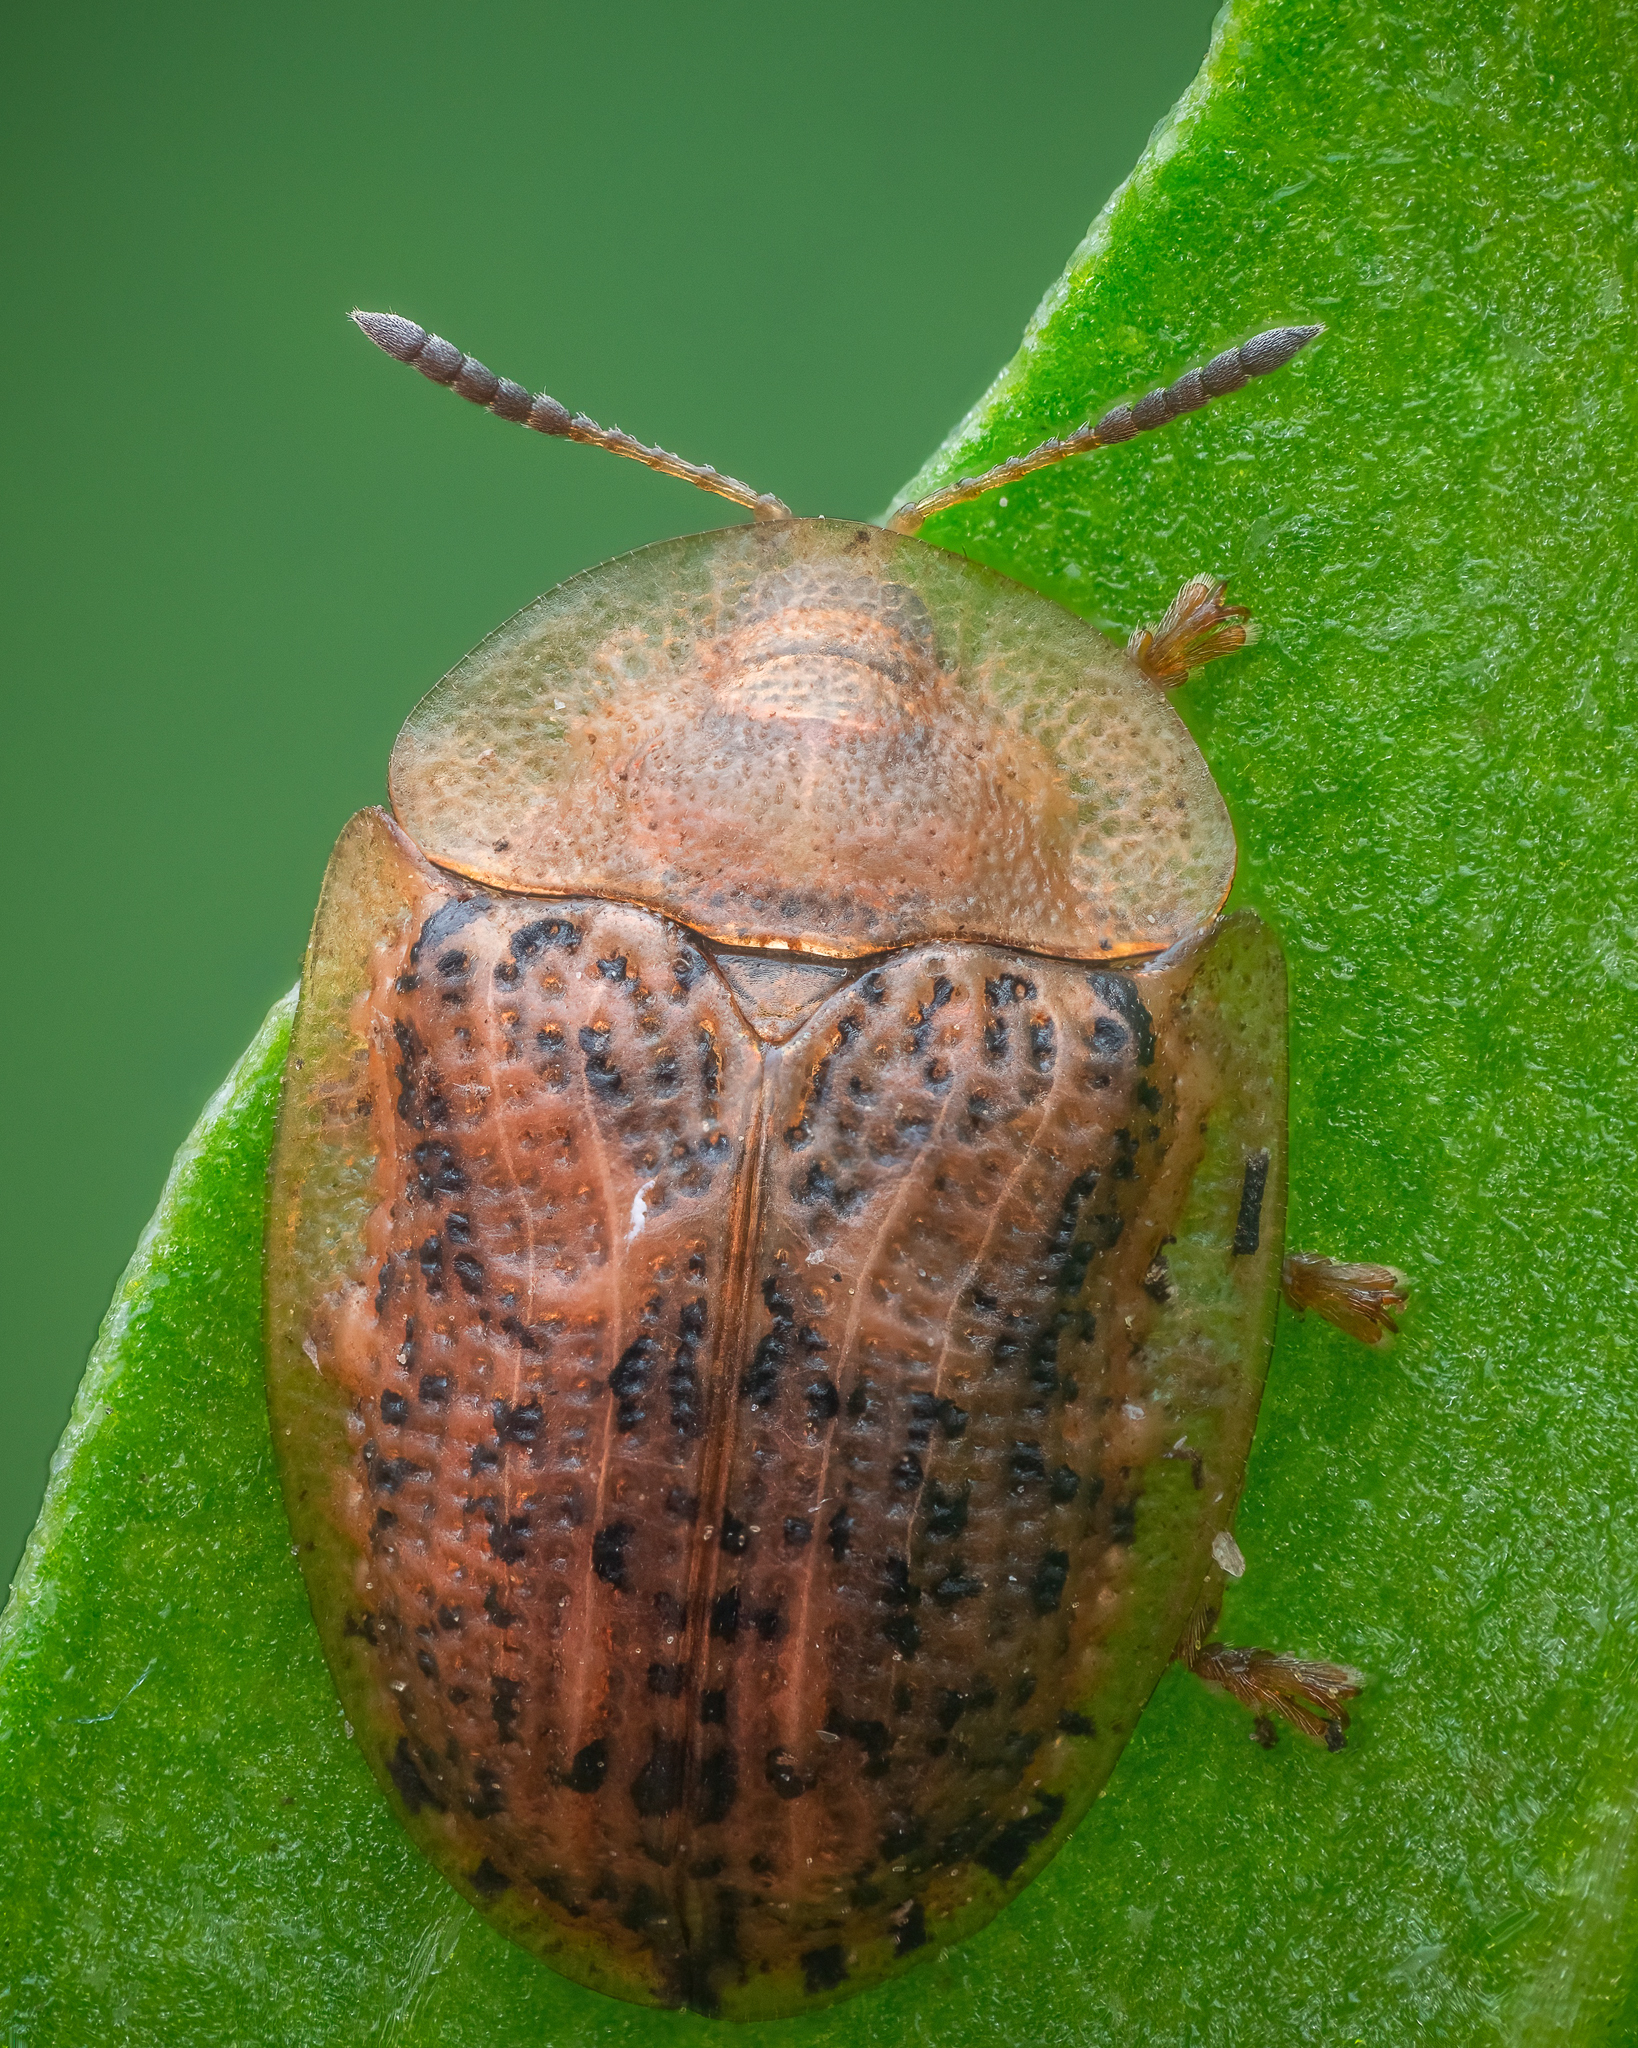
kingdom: Animalia
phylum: Arthropoda
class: Insecta
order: Coleoptera
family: Chrysomelidae
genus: Cassida
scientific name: Cassida nebulosa
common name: Beet tortoise beetle
